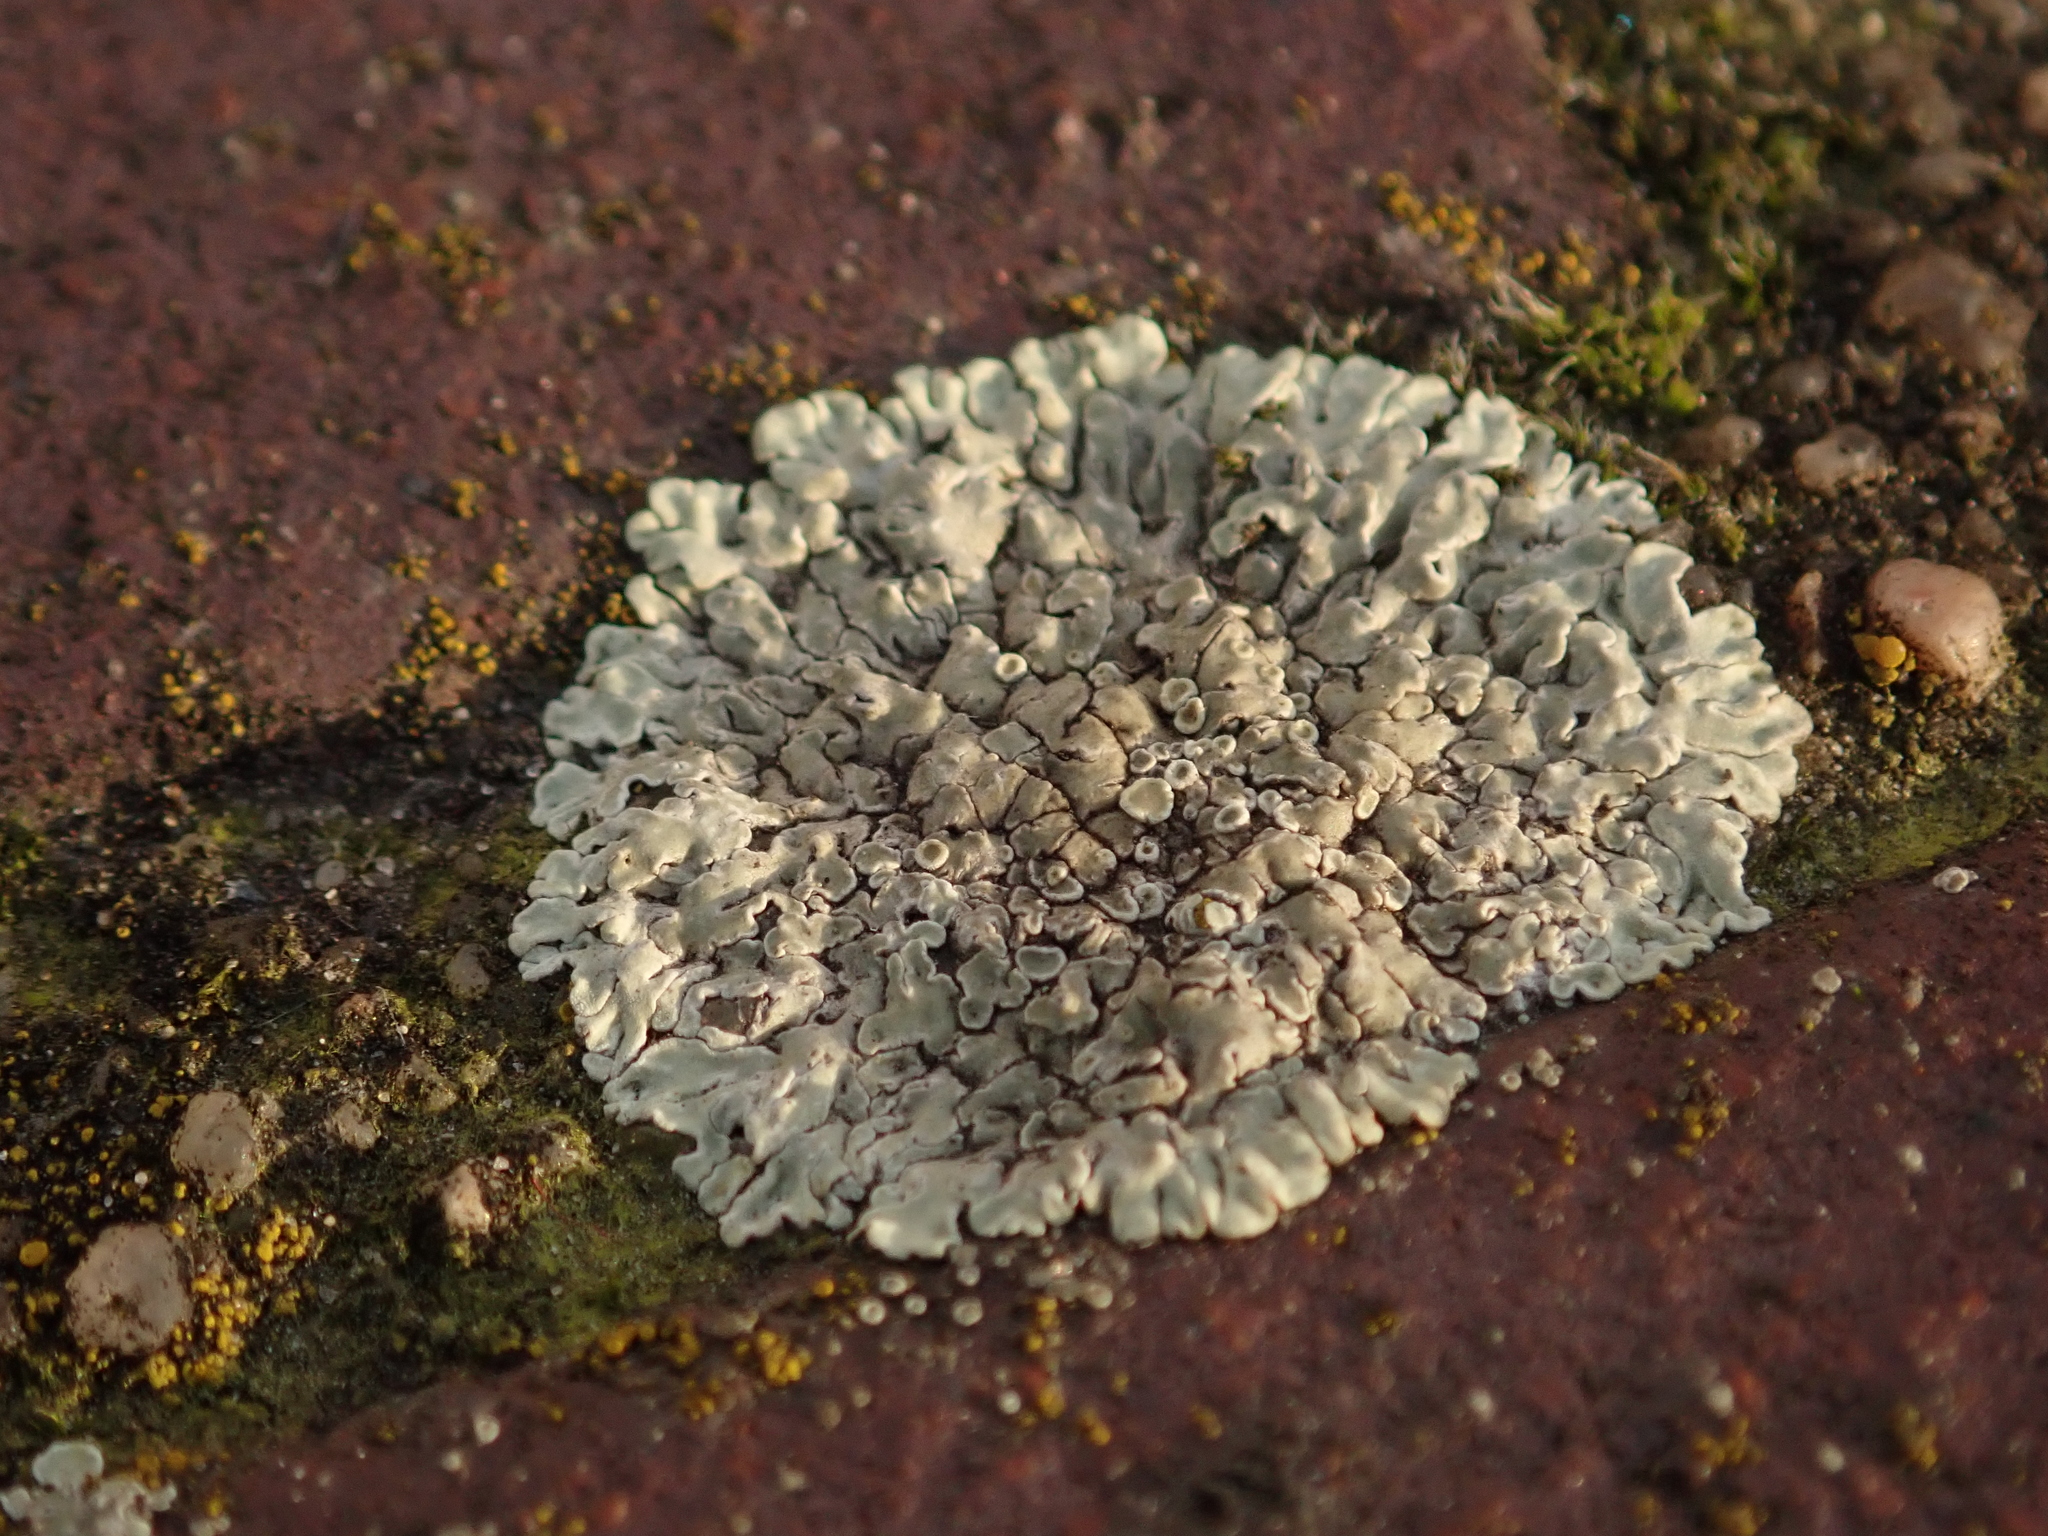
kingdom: Fungi
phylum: Ascomycota
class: Lecanoromycetes
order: Lecanorales
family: Lecanoraceae
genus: Protoparmeliopsis
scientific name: Protoparmeliopsis muralis
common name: Stonewall rim lichen
